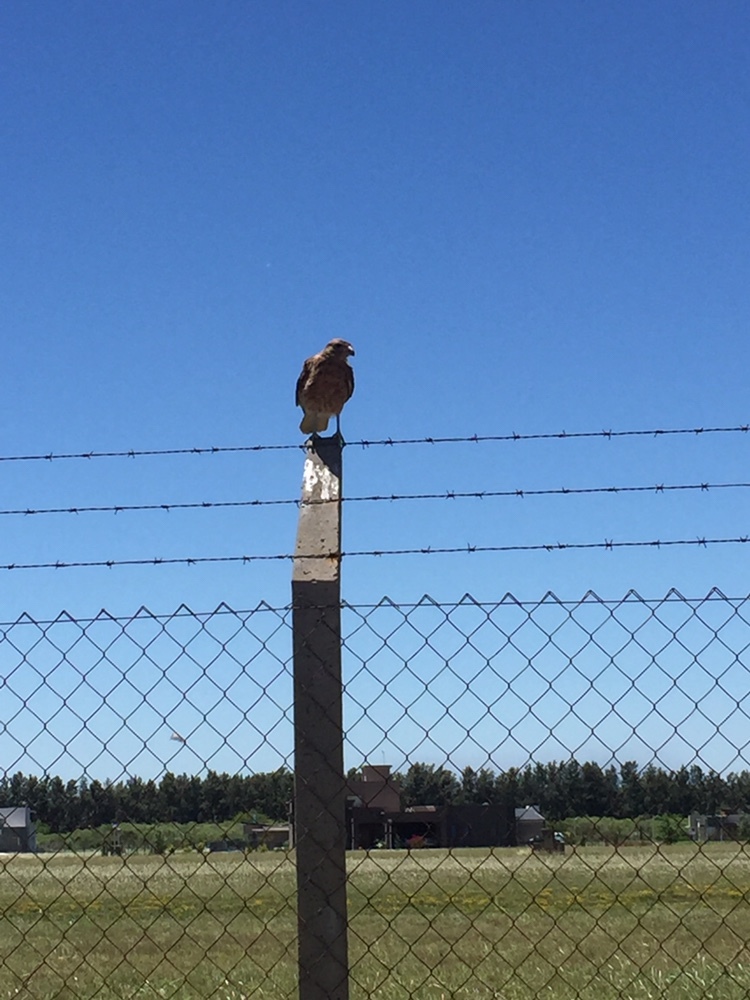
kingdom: Animalia
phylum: Chordata
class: Aves
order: Falconiformes
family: Falconidae
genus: Daptrius
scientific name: Daptrius
